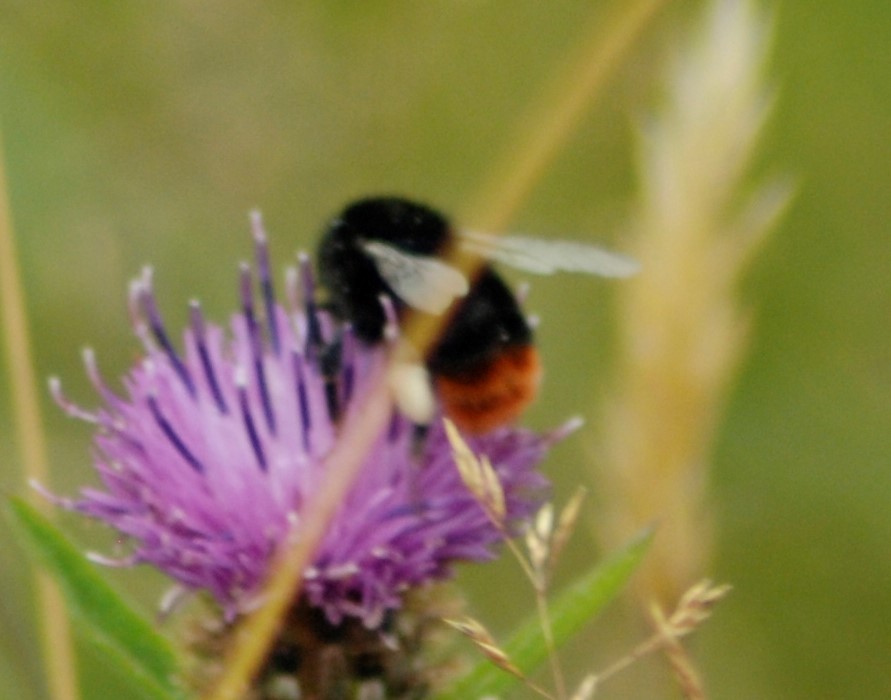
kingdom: Animalia
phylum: Arthropoda
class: Insecta
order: Hymenoptera
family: Apidae
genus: Bombus
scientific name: Bombus lapidarius
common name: Large red-tailed humble-bee
